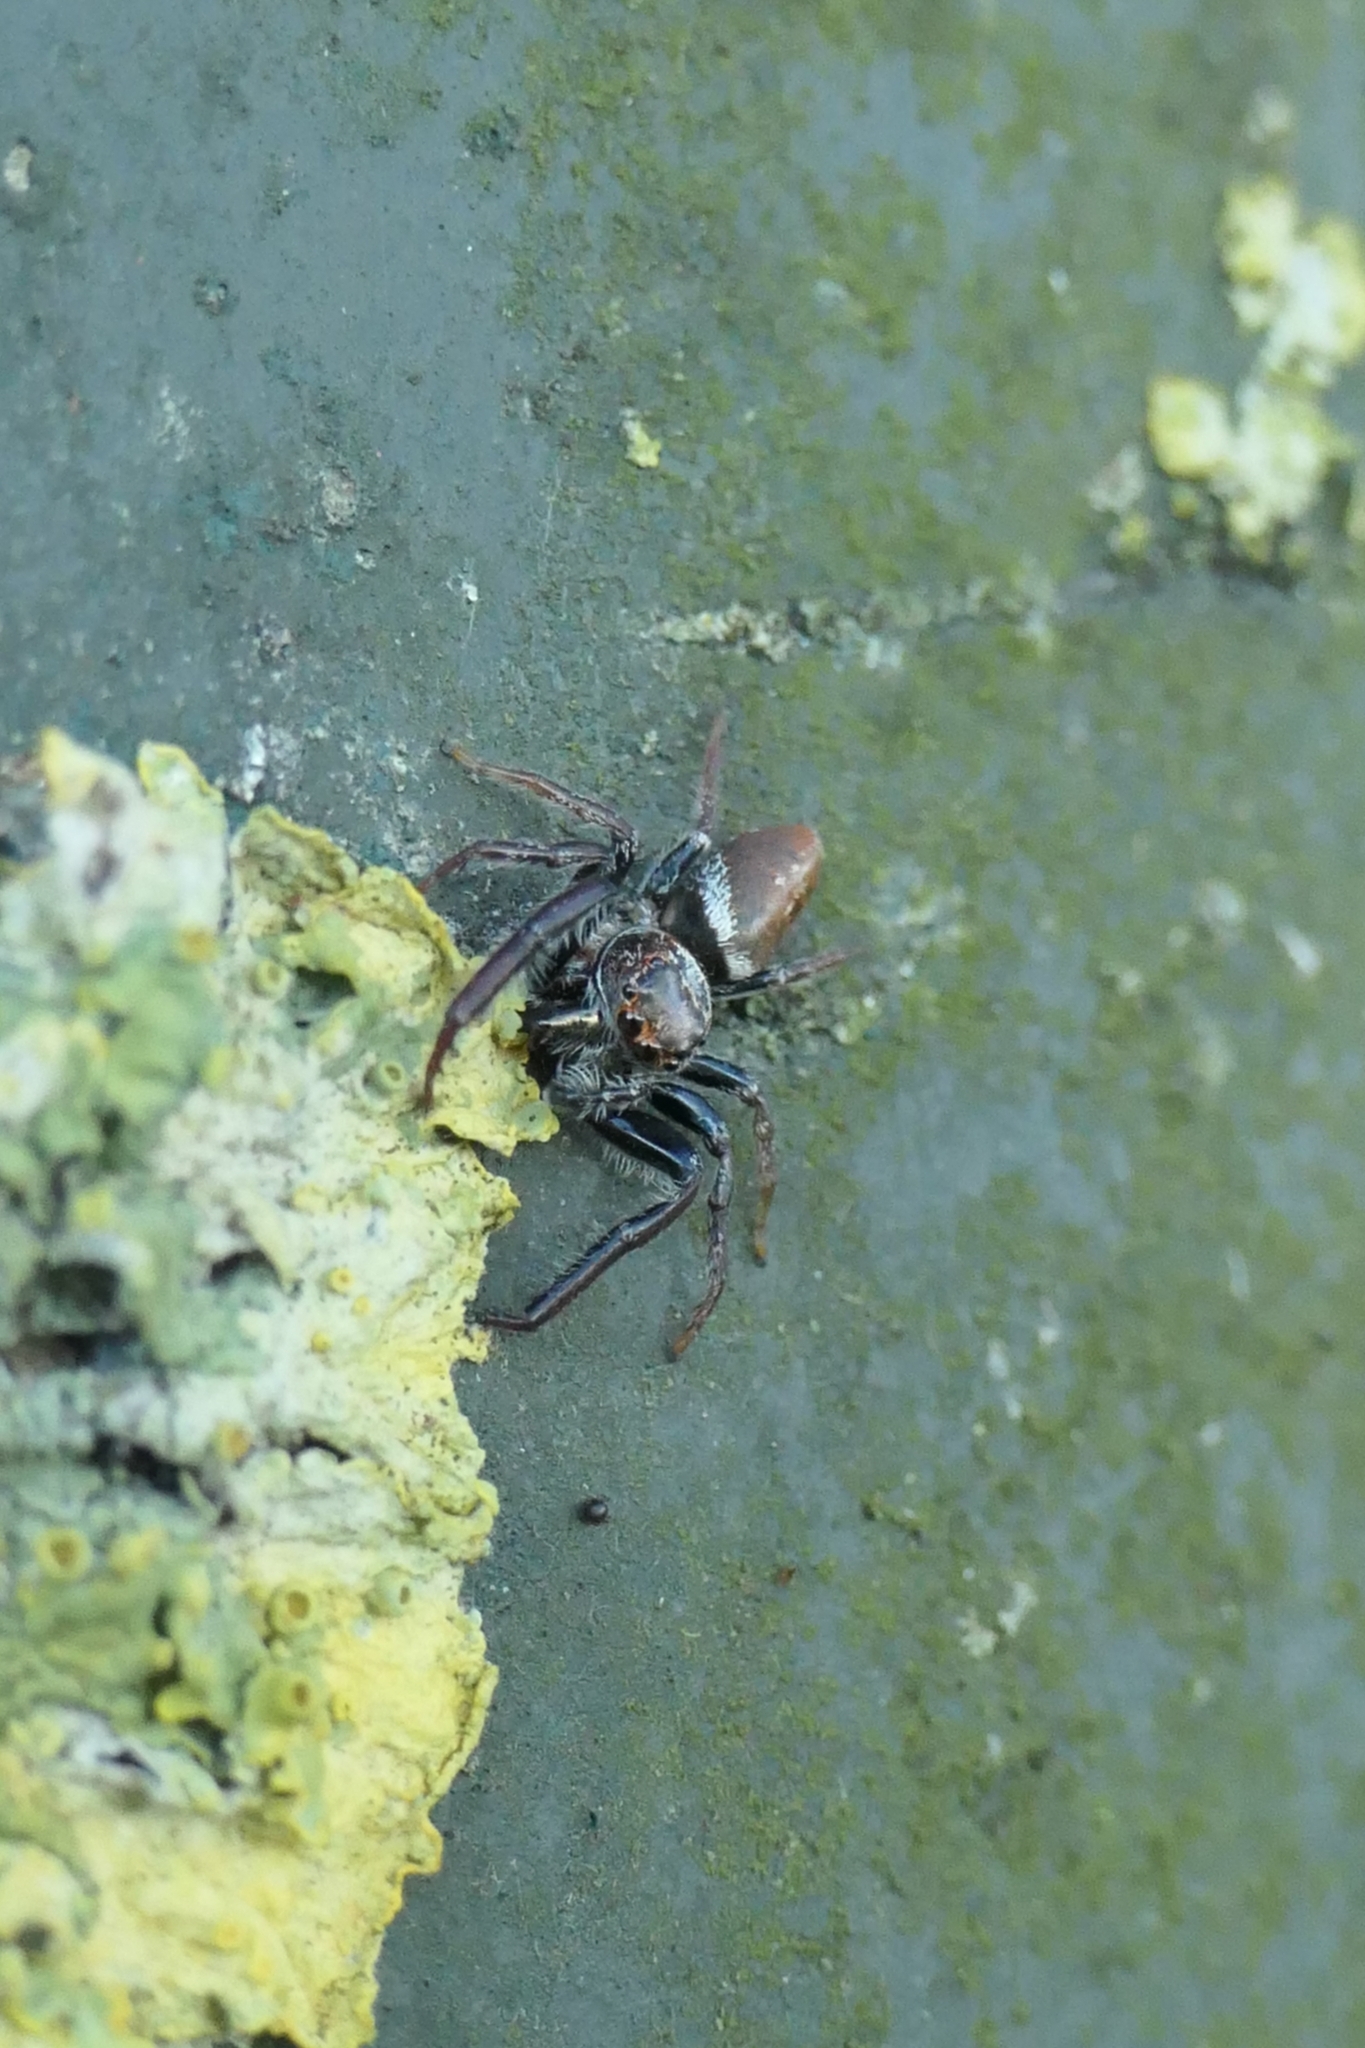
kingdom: Animalia
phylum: Arthropoda
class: Arachnida
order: Araneae
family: Salticidae
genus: Opisthoncus
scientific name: Opisthoncus polyphemus
